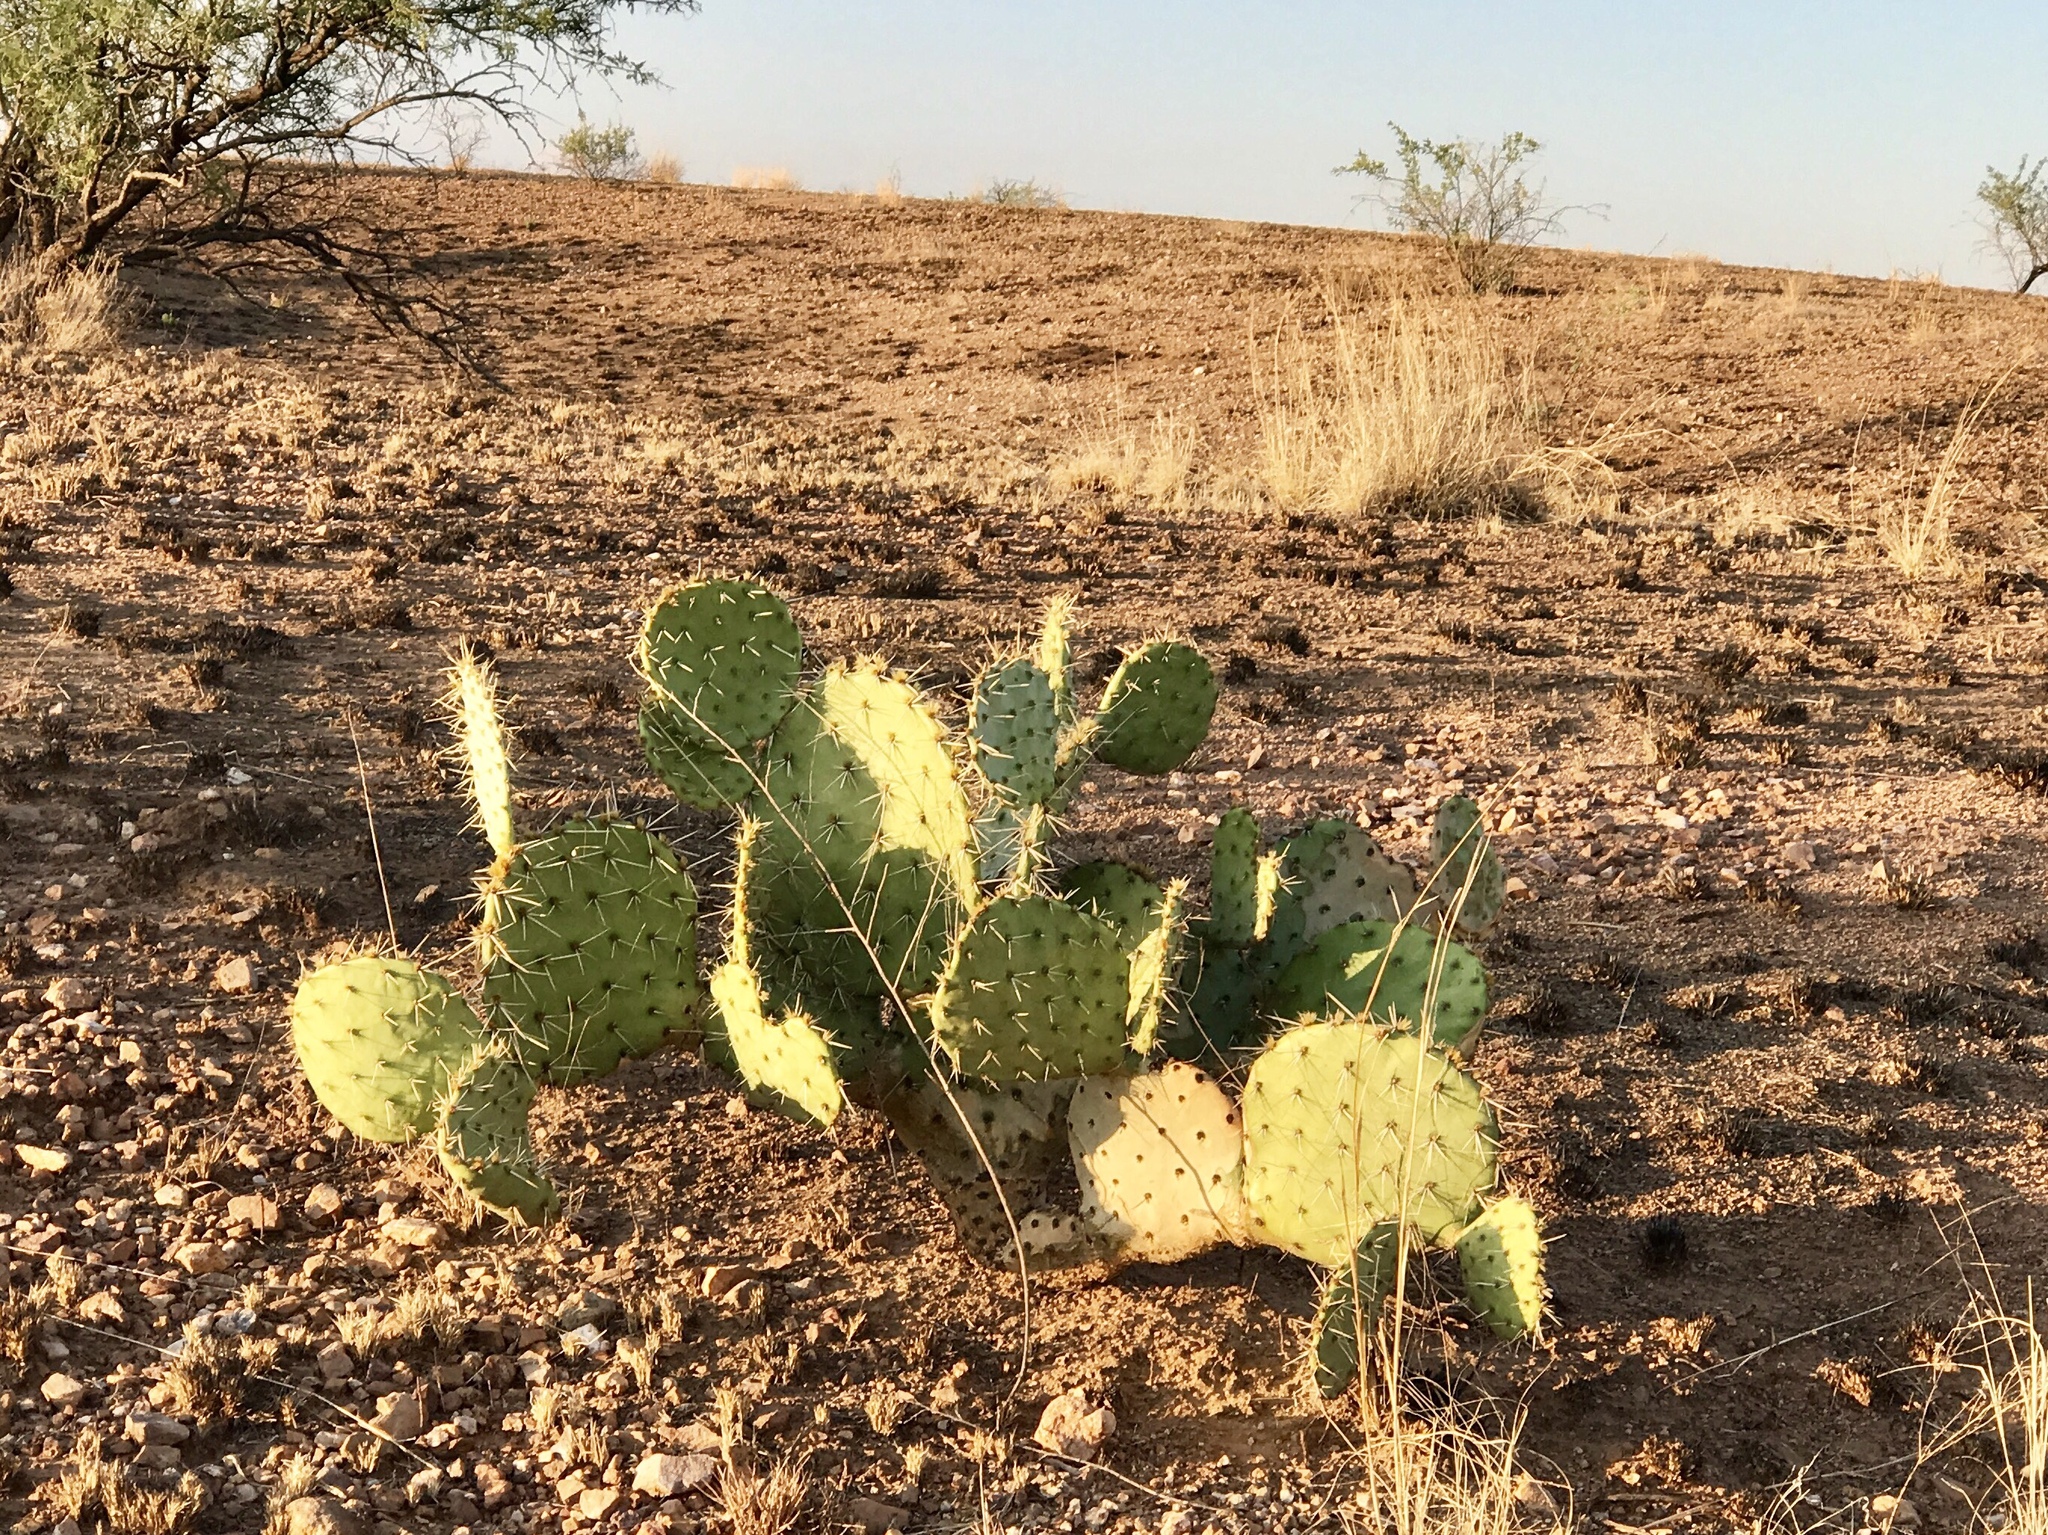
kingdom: Plantae
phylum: Tracheophyta
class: Magnoliopsida
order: Caryophyllales
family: Cactaceae
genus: Opuntia
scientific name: Opuntia engelmannii
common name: Cactus-apple
